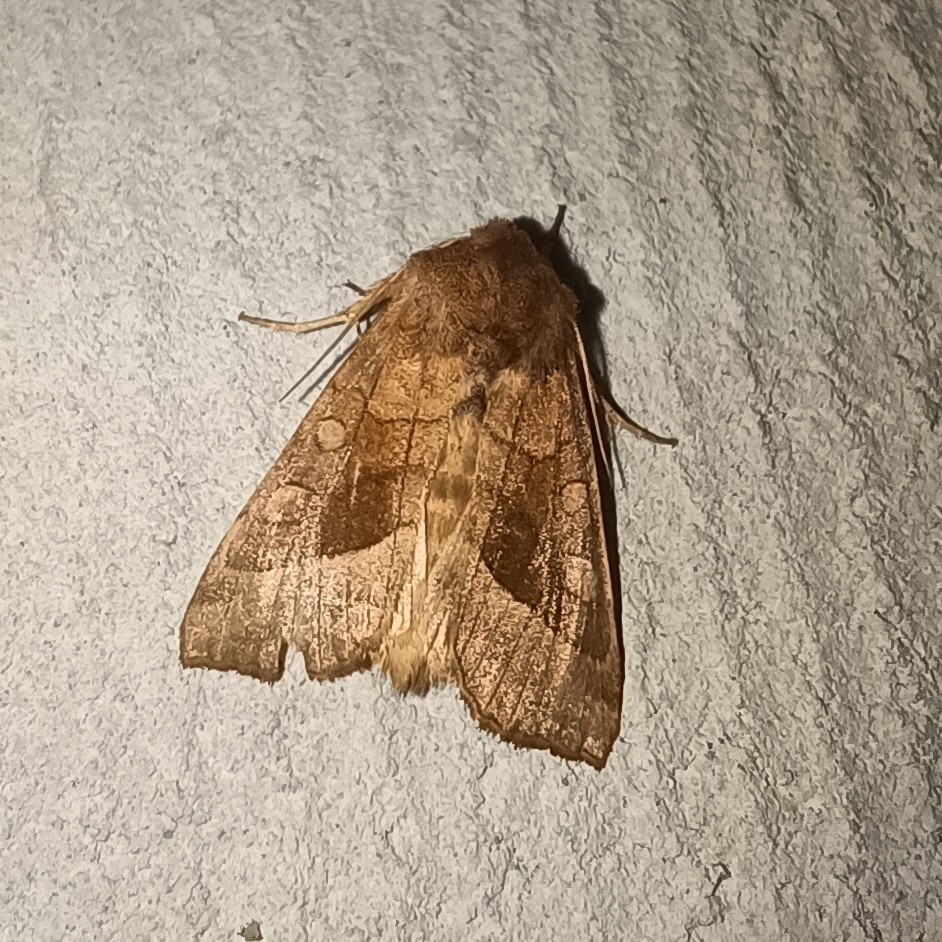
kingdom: Animalia
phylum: Arthropoda
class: Insecta
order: Lepidoptera
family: Noctuidae
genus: Hydraecia
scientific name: Hydraecia micacea
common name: Rosy rustic
